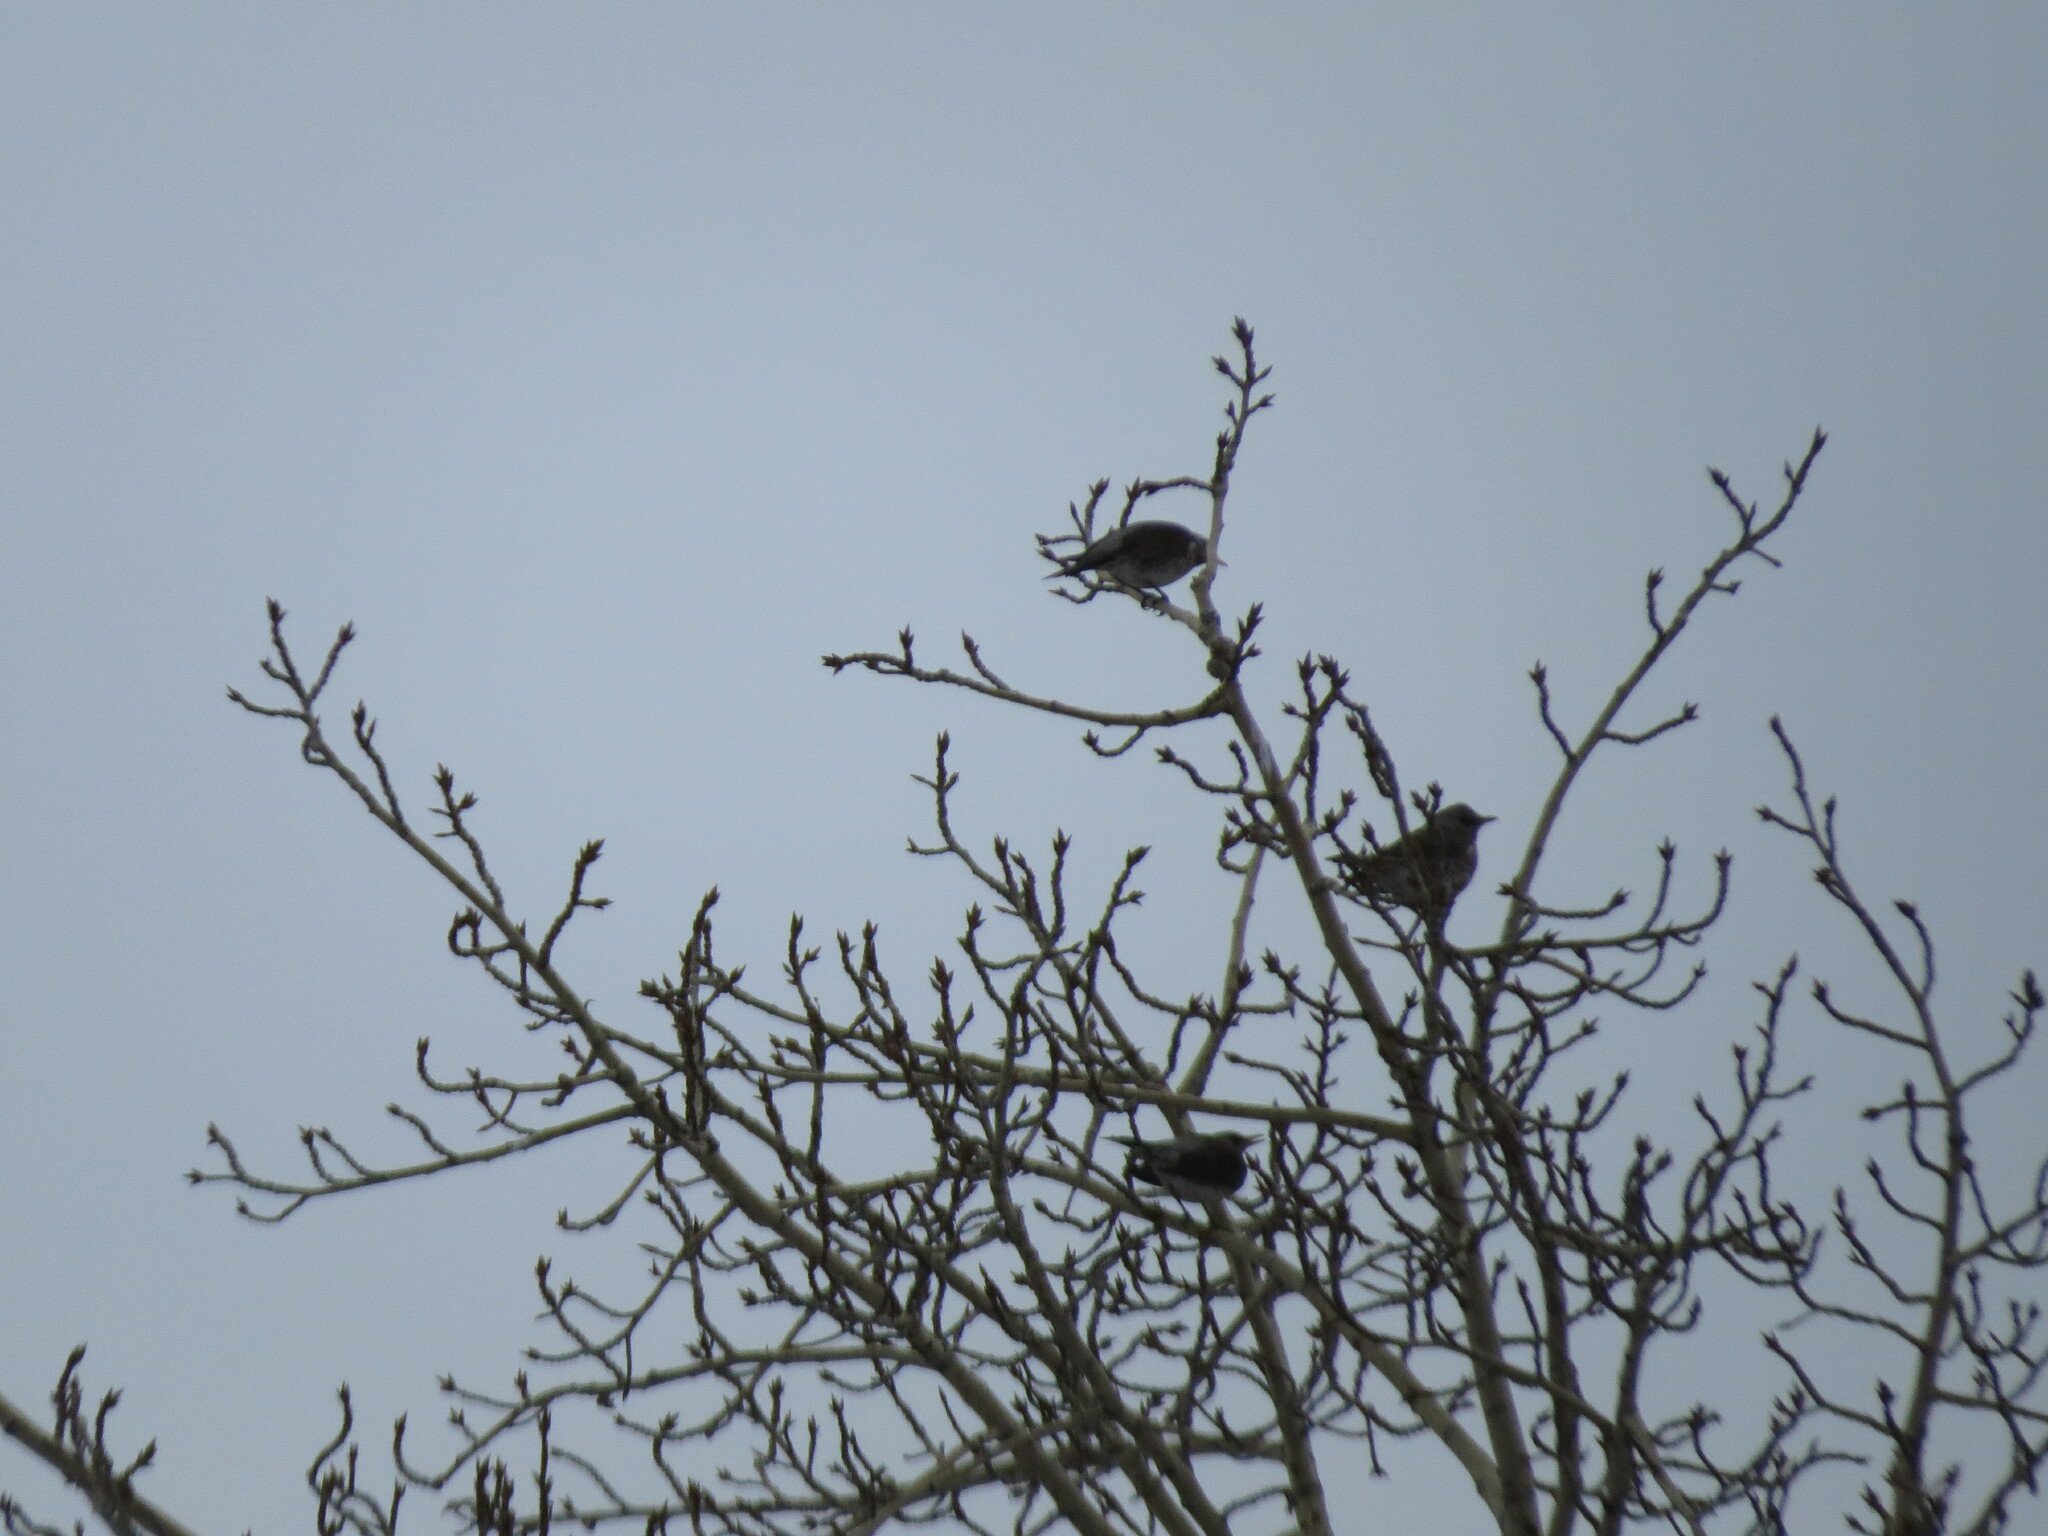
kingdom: Animalia
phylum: Chordata
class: Aves
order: Passeriformes
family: Turdidae
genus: Turdus
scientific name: Turdus pilaris
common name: Fieldfare
